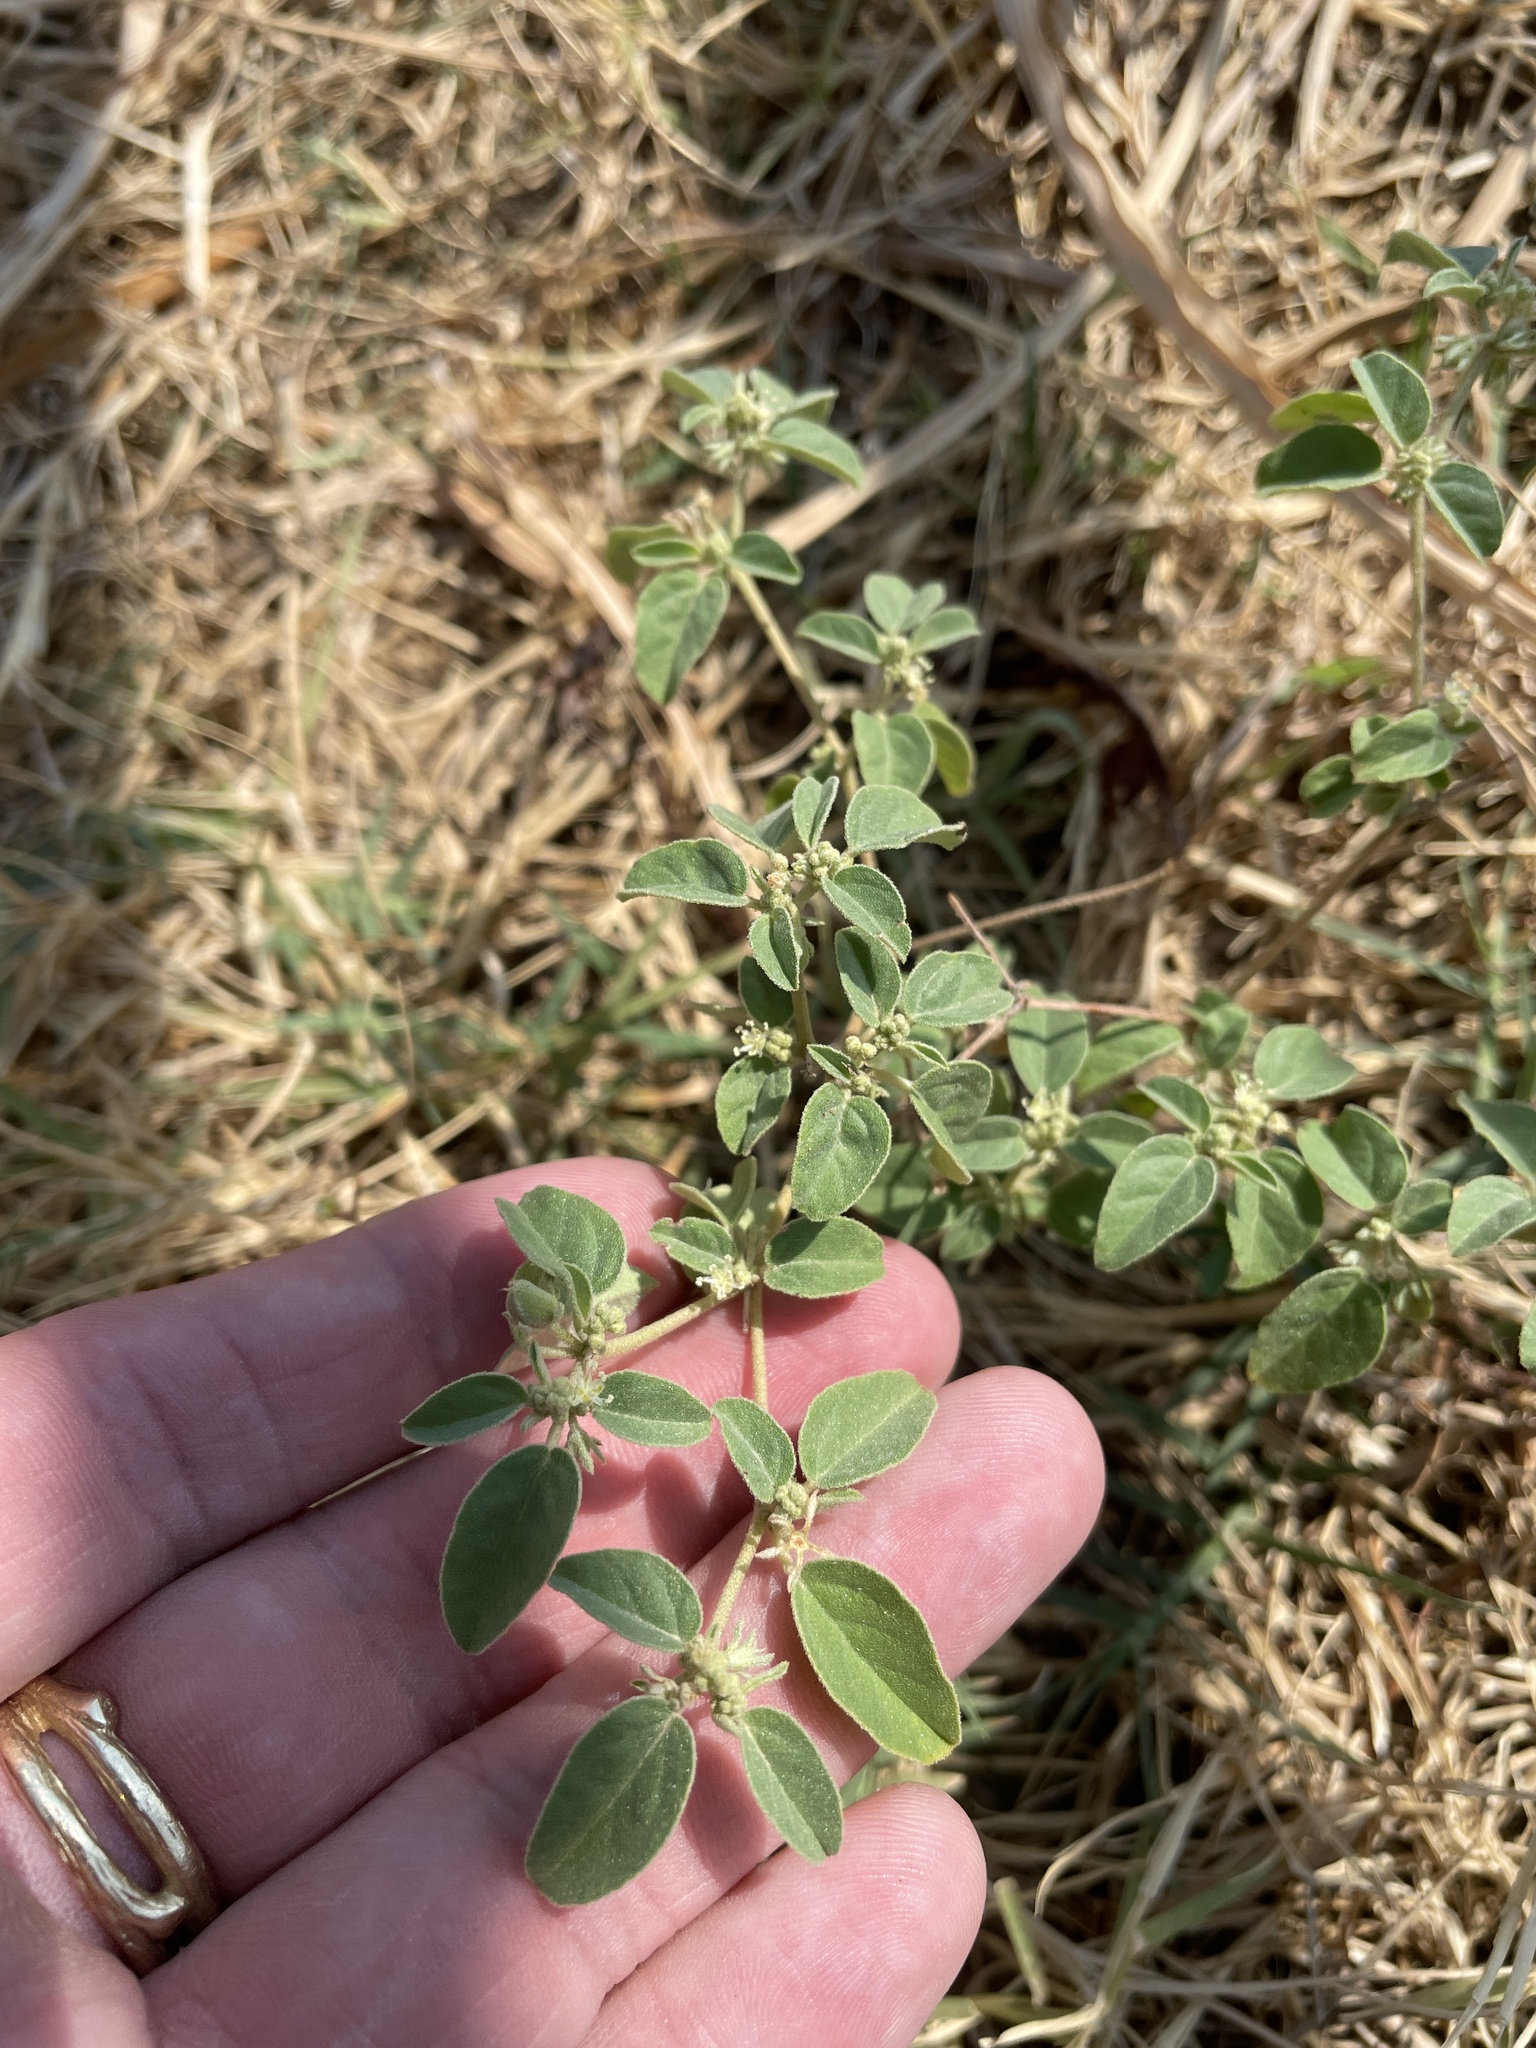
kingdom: Plantae
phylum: Tracheophyta
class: Magnoliopsida
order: Malpighiales
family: Euphorbiaceae
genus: Croton
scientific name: Croton monanthogynus
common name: One-seed croton
